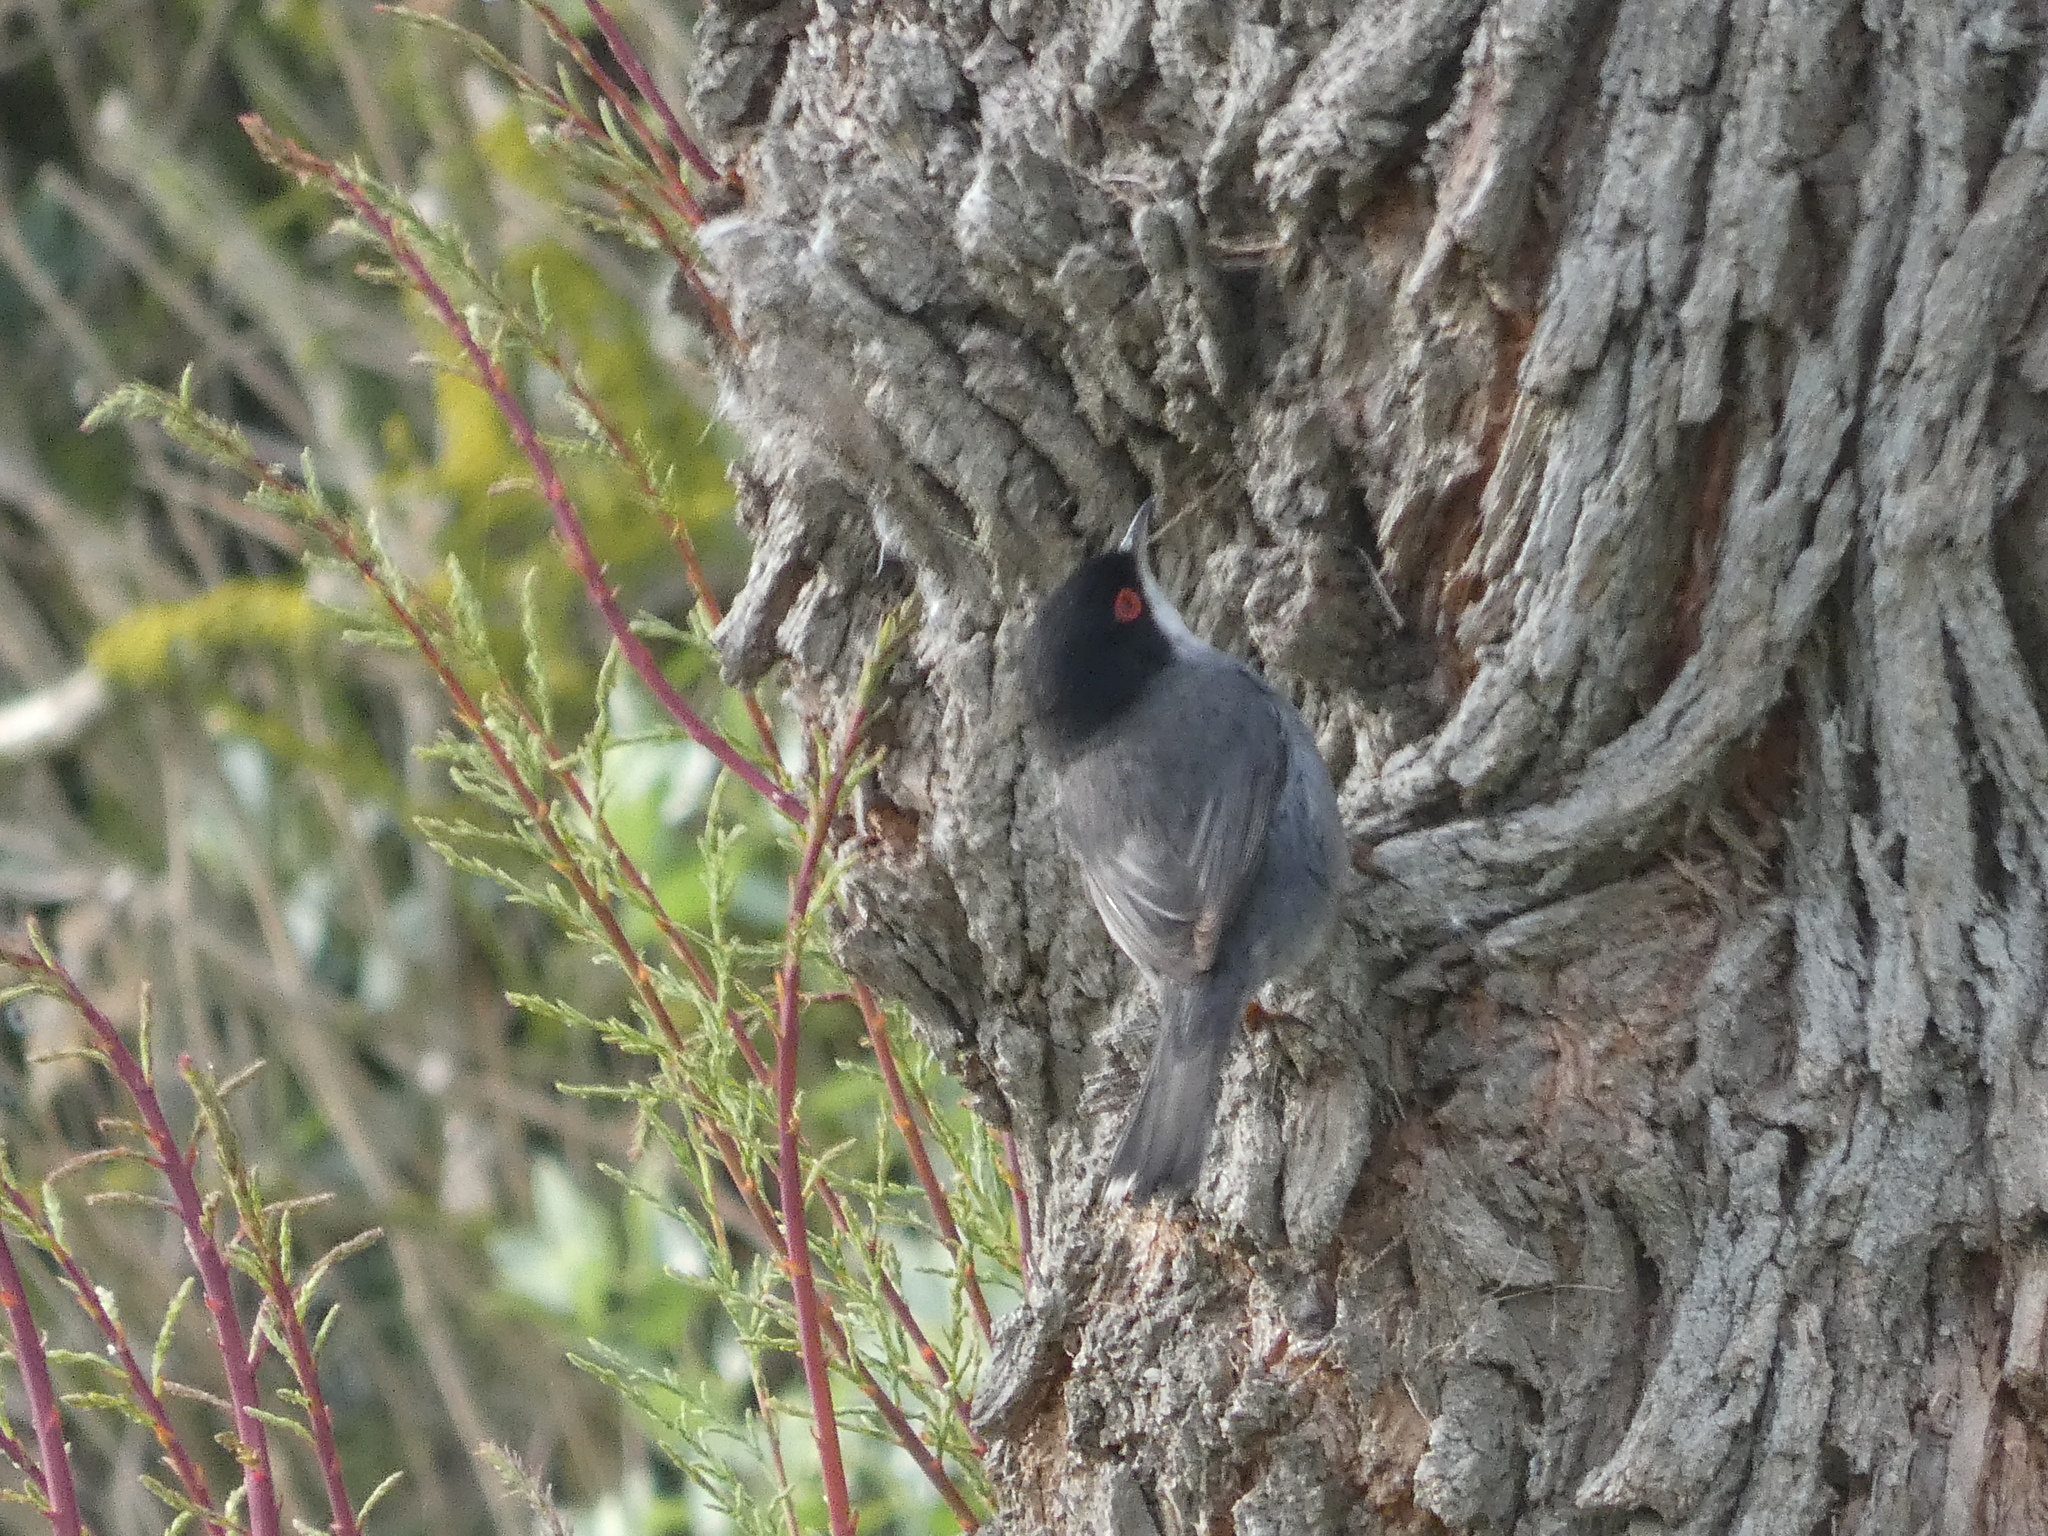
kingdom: Animalia
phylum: Chordata
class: Aves
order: Passeriformes
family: Sylviidae
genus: Curruca
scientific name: Curruca melanocephala
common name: Sardinian warbler
